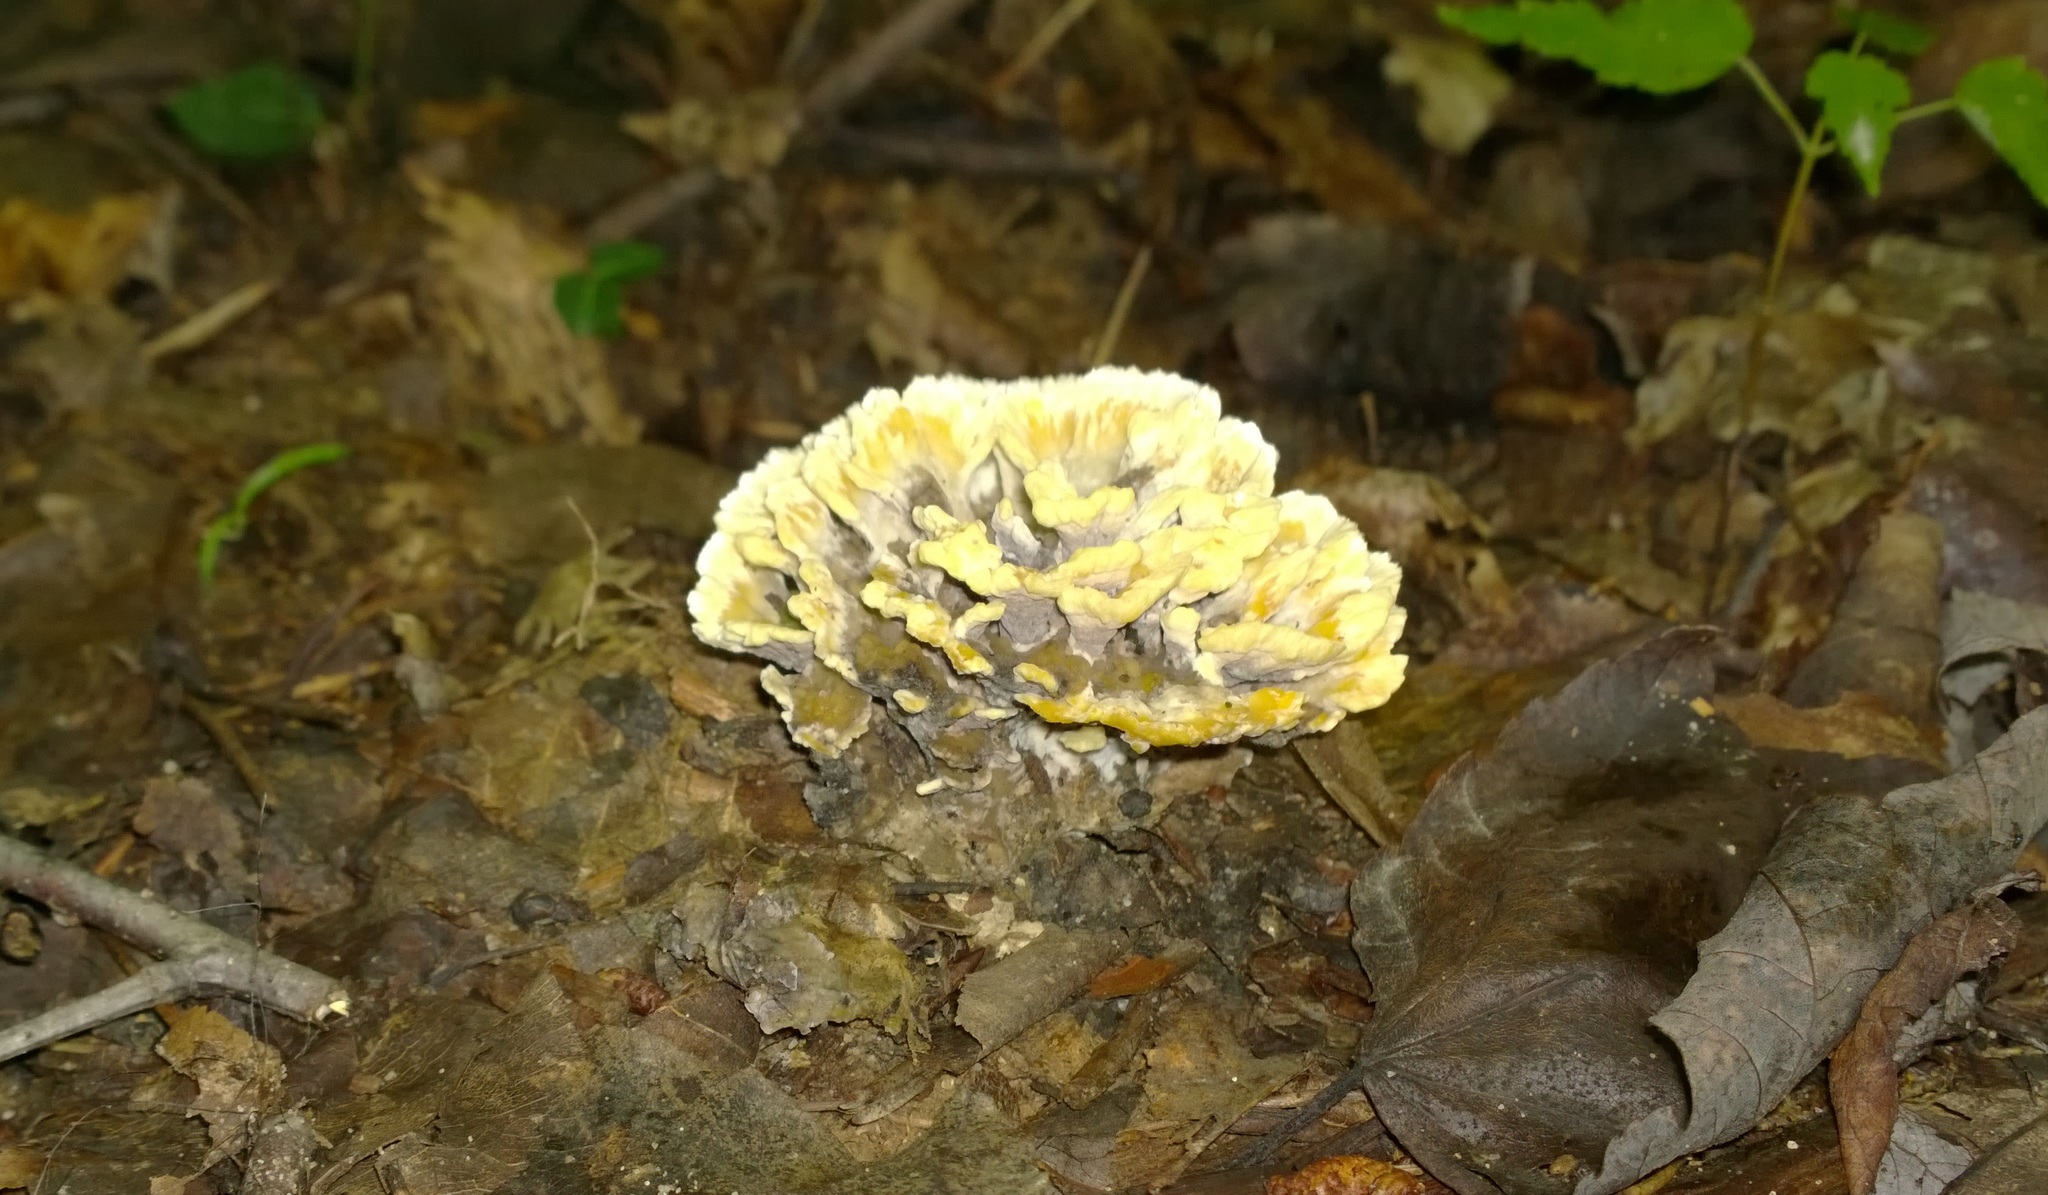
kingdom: Fungi
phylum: Basidiomycota
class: Agaricomycetes
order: Thelephorales
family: Thelephoraceae
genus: Thelephora
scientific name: Thelephora vialis
